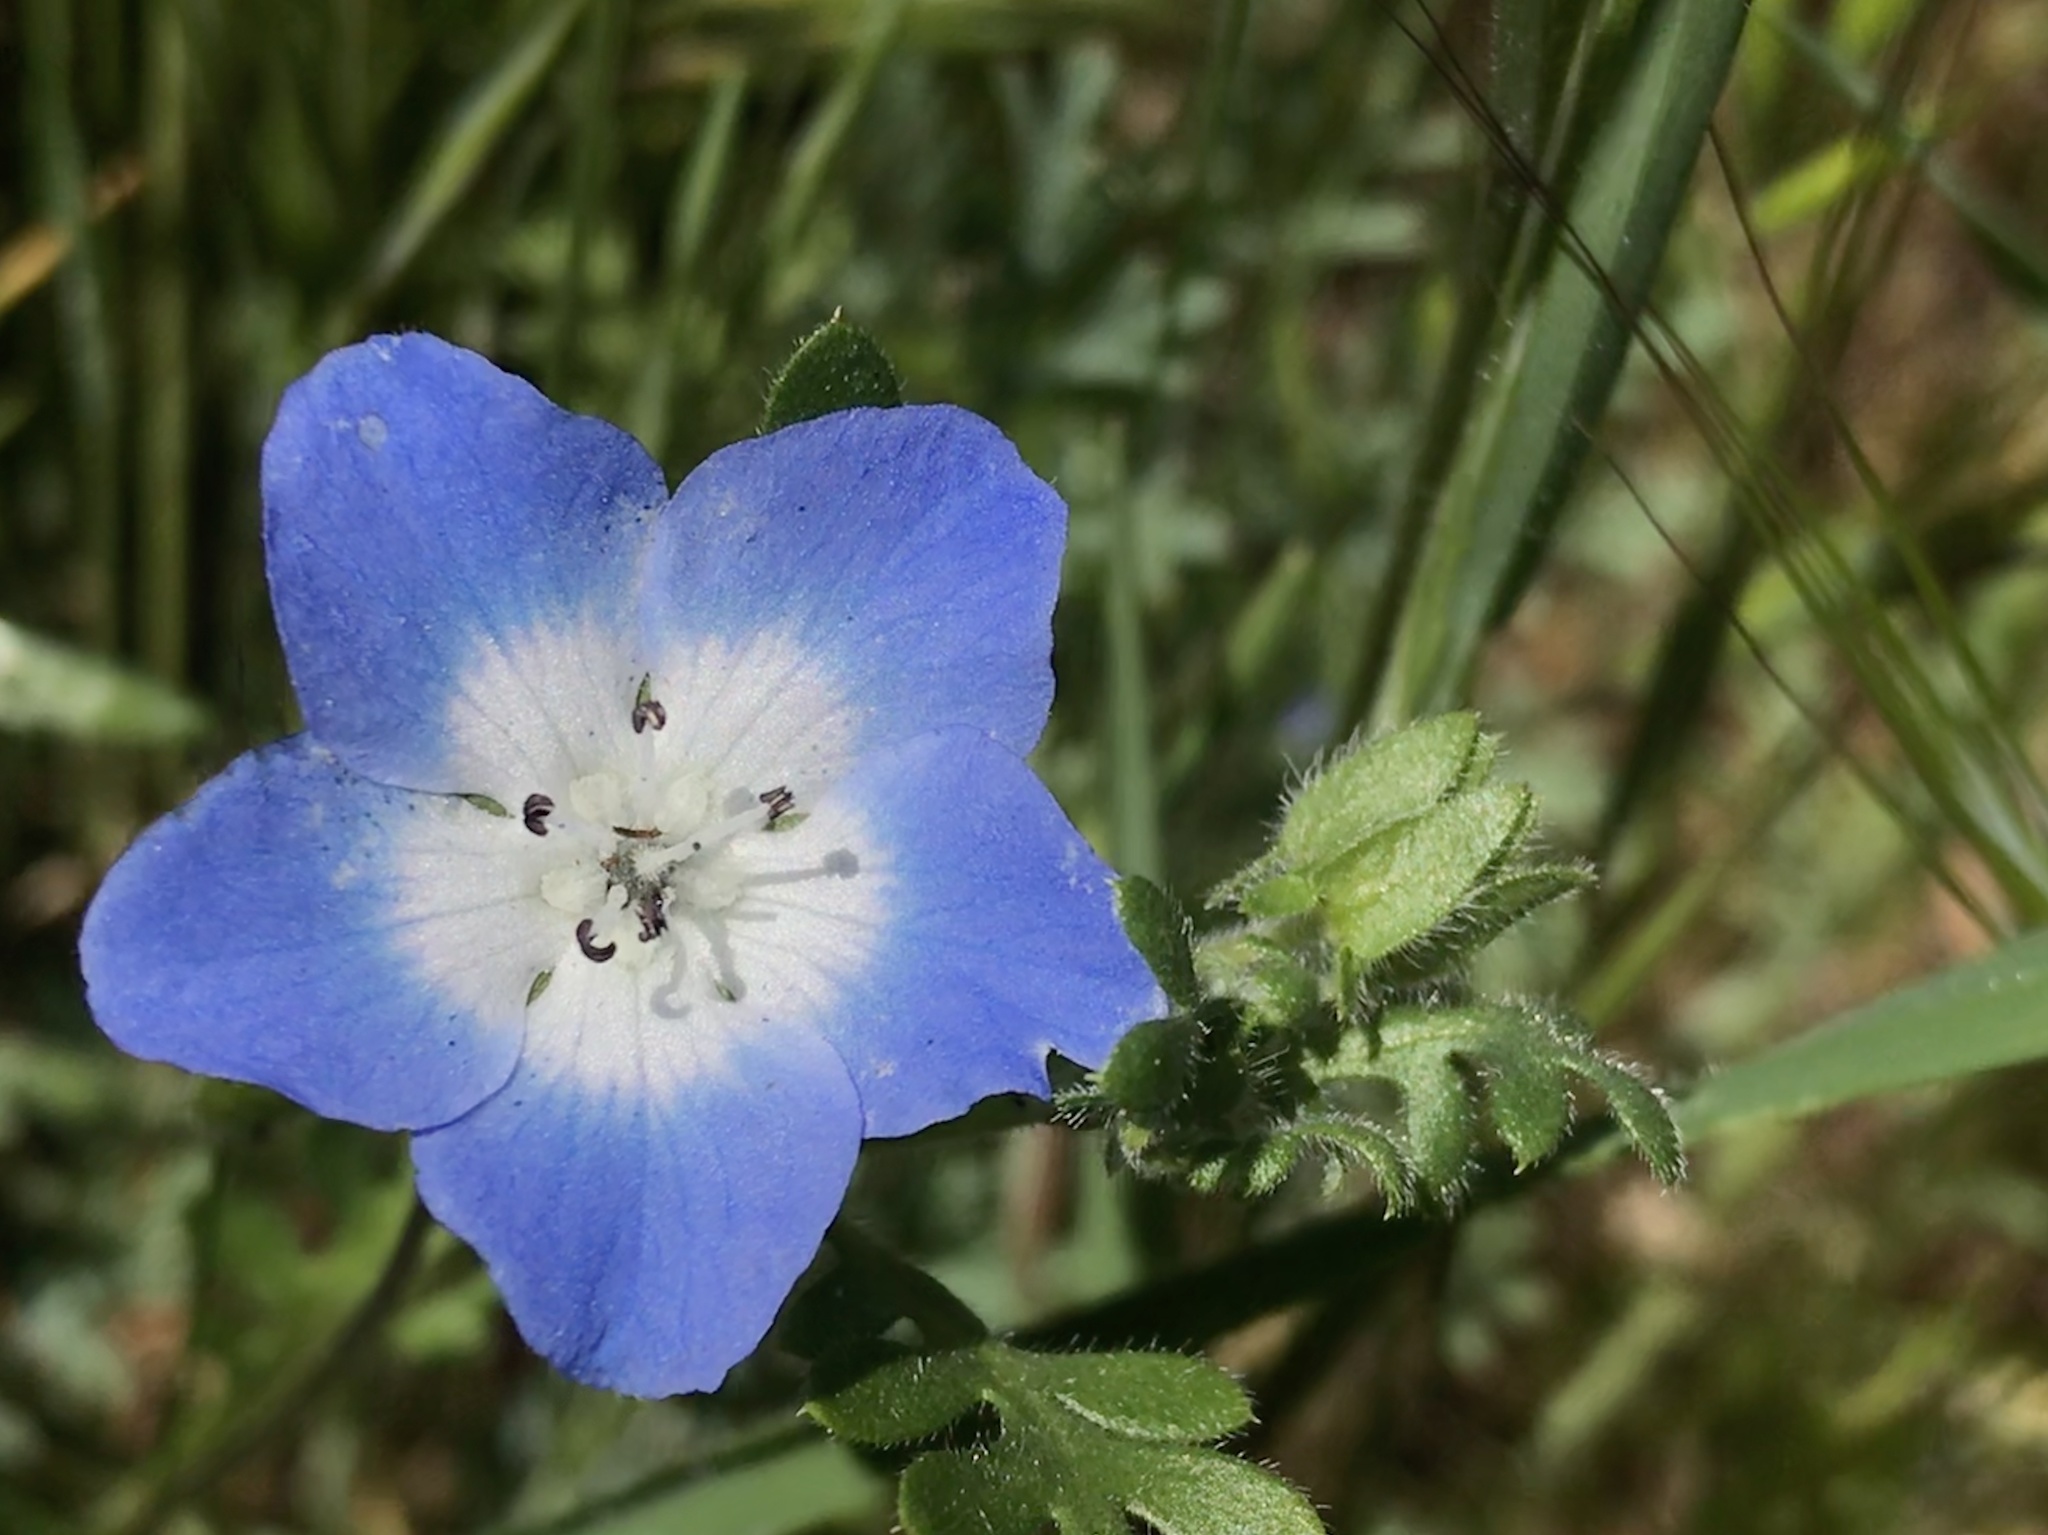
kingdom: Plantae
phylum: Tracheophyta
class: Magnoliopsida
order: Boraginales
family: Hydrophyllaceae
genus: Nemophila
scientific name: Nemophila menziesii
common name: Baby's-blue-eyes
